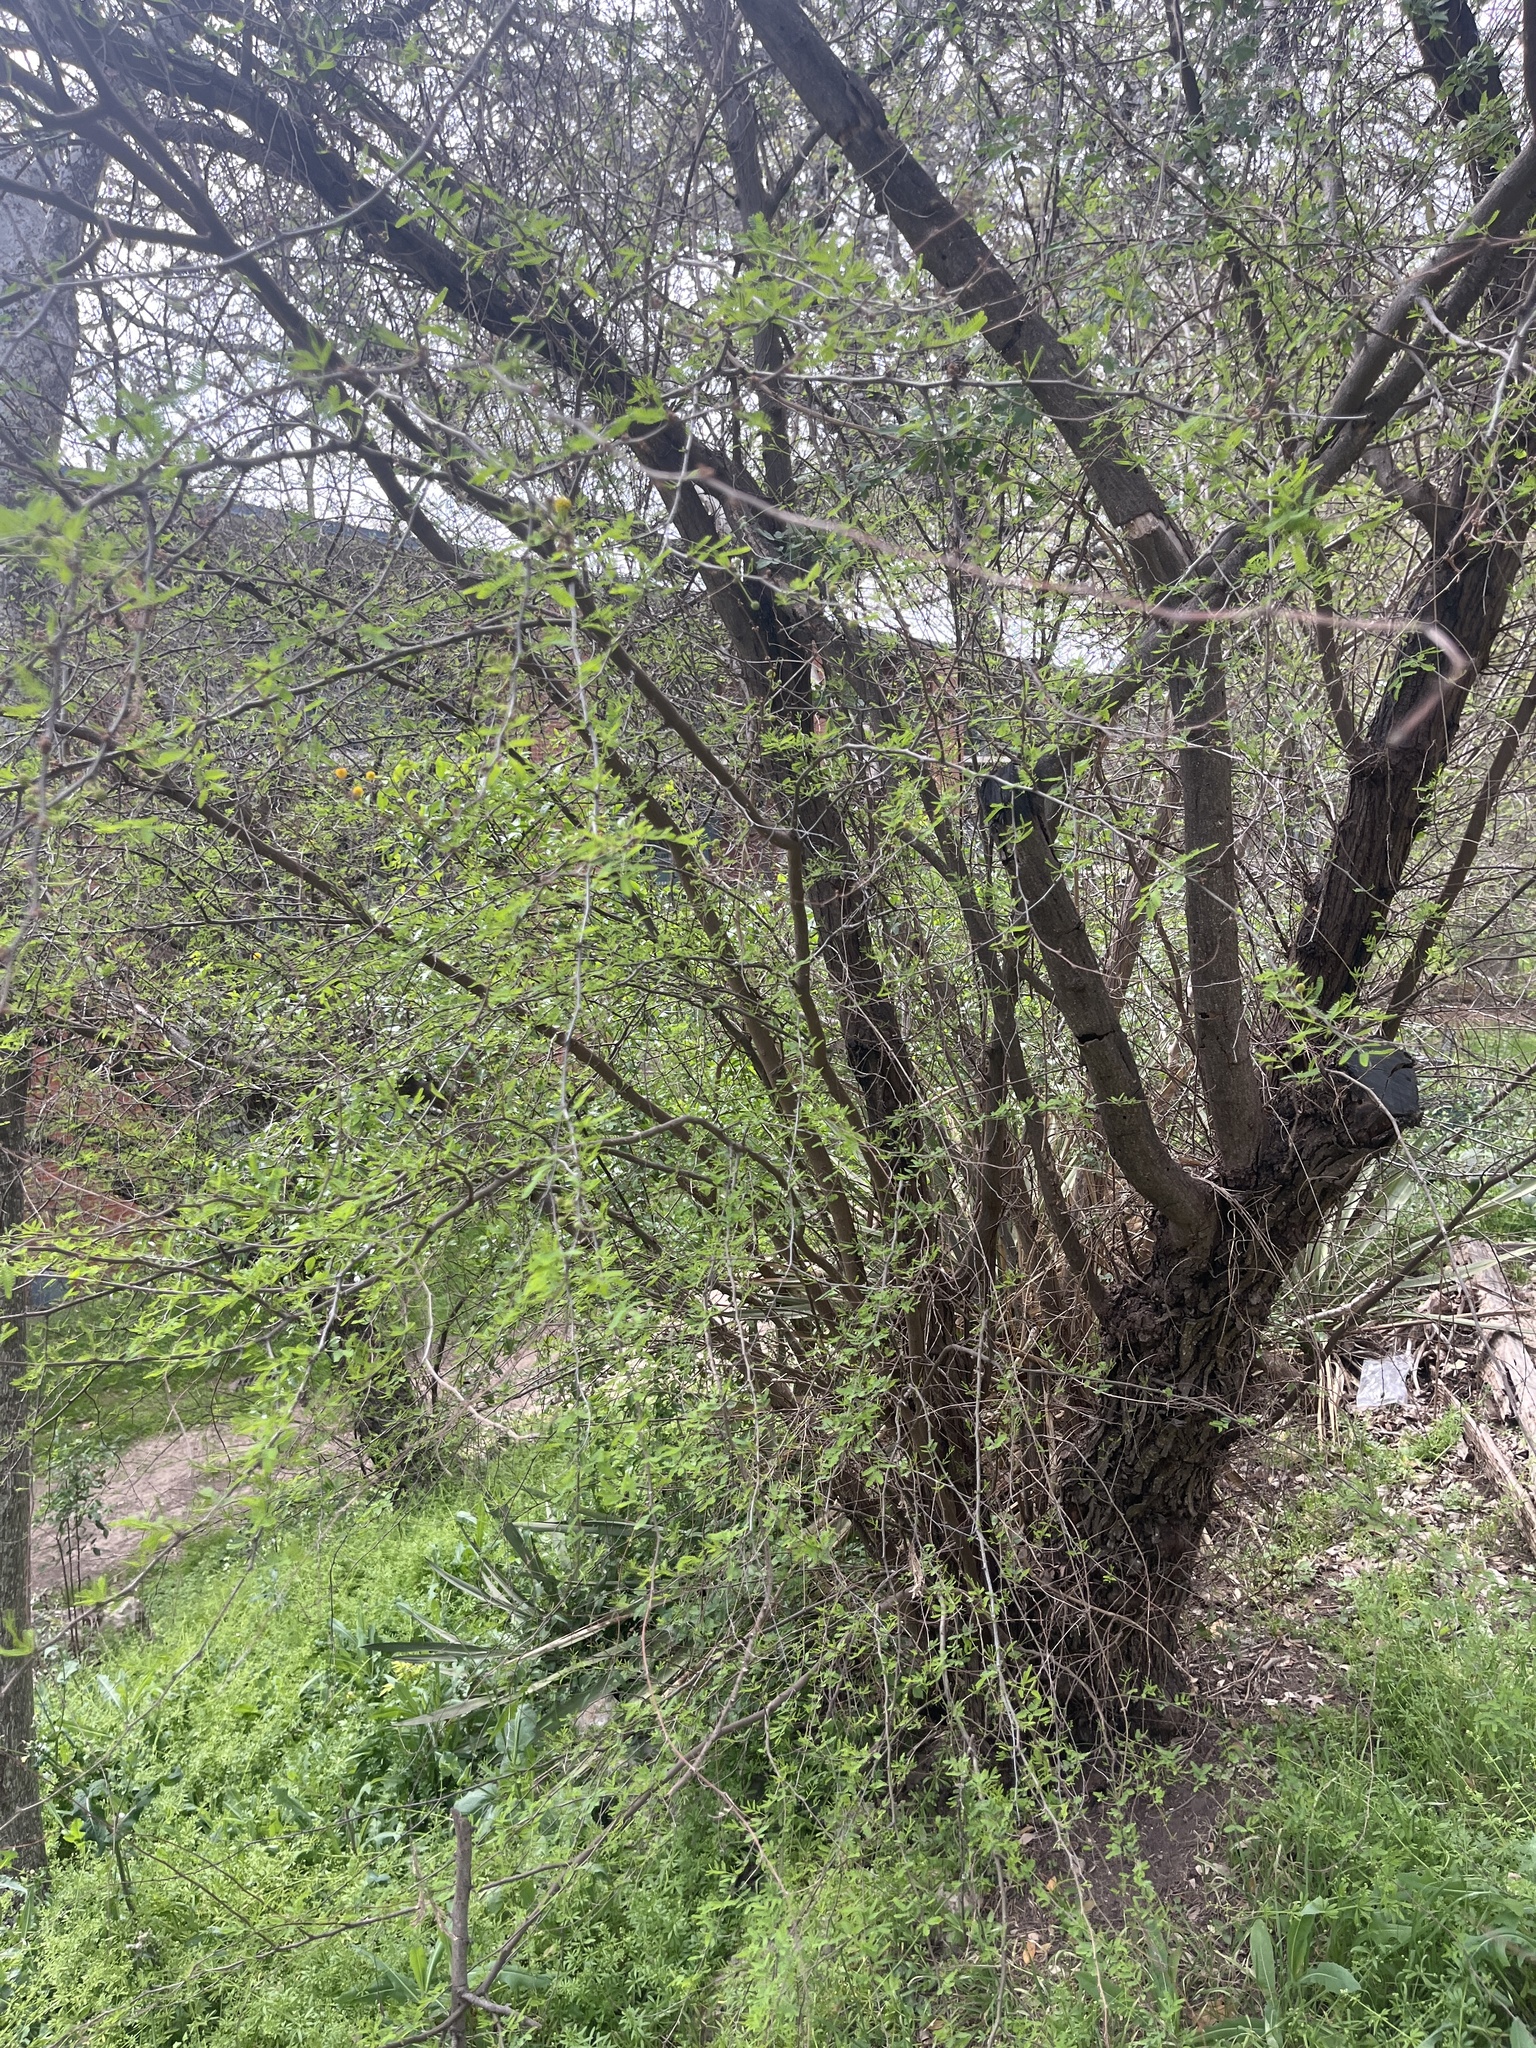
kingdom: Plantae
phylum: Tracheophyta
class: Magnoliopsida
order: Fabales
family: Fabaceae
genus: Vachellia
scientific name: Vachellia farnesiana
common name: Sweet acacia
